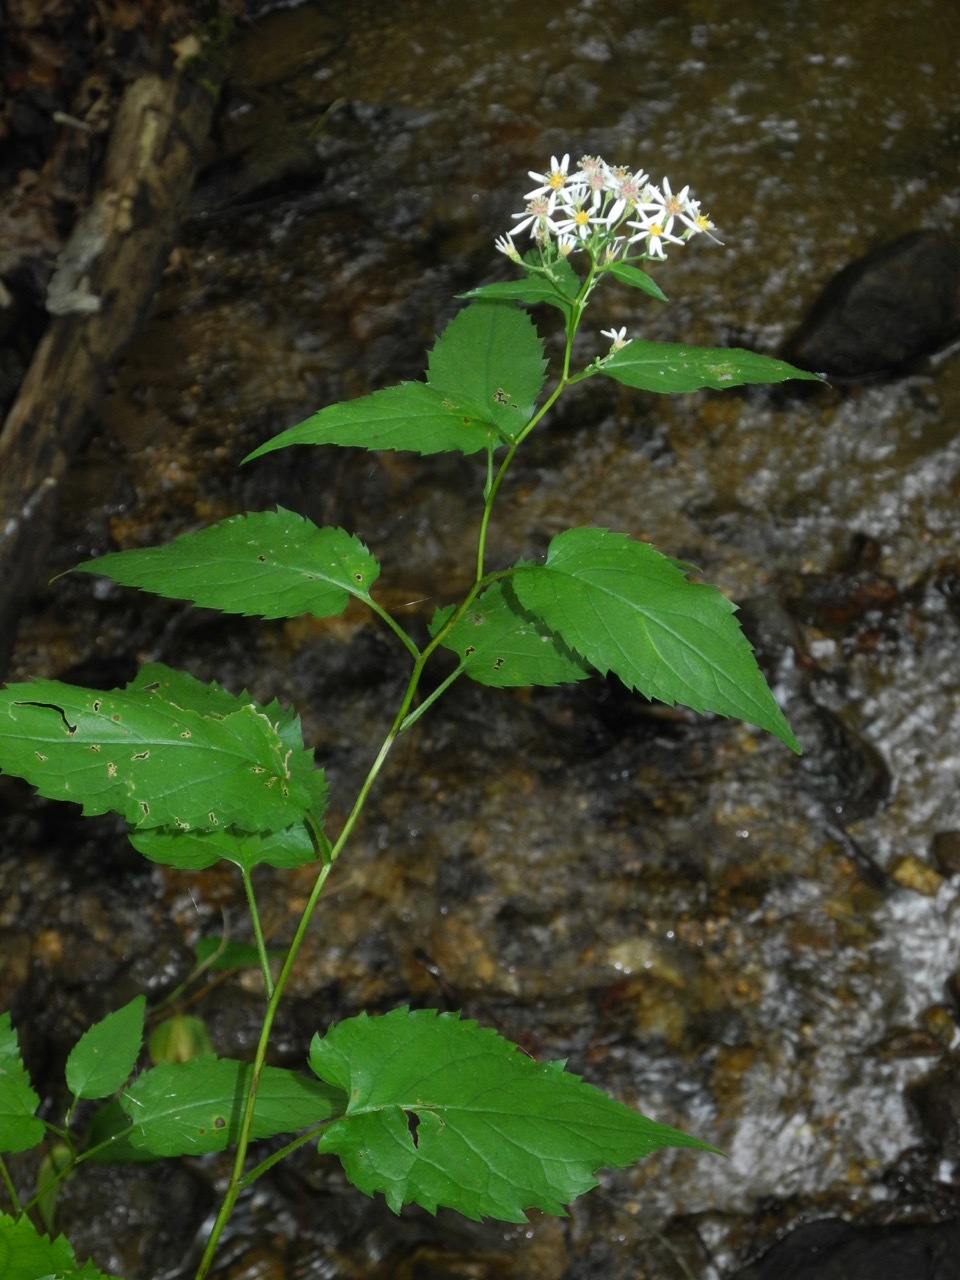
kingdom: Plantae
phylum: Tracheophyta
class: Magnoliopsida
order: Asterales
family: Asteraceae
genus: Eurybia
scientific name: Eurybia divaricata
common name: White wood aster
